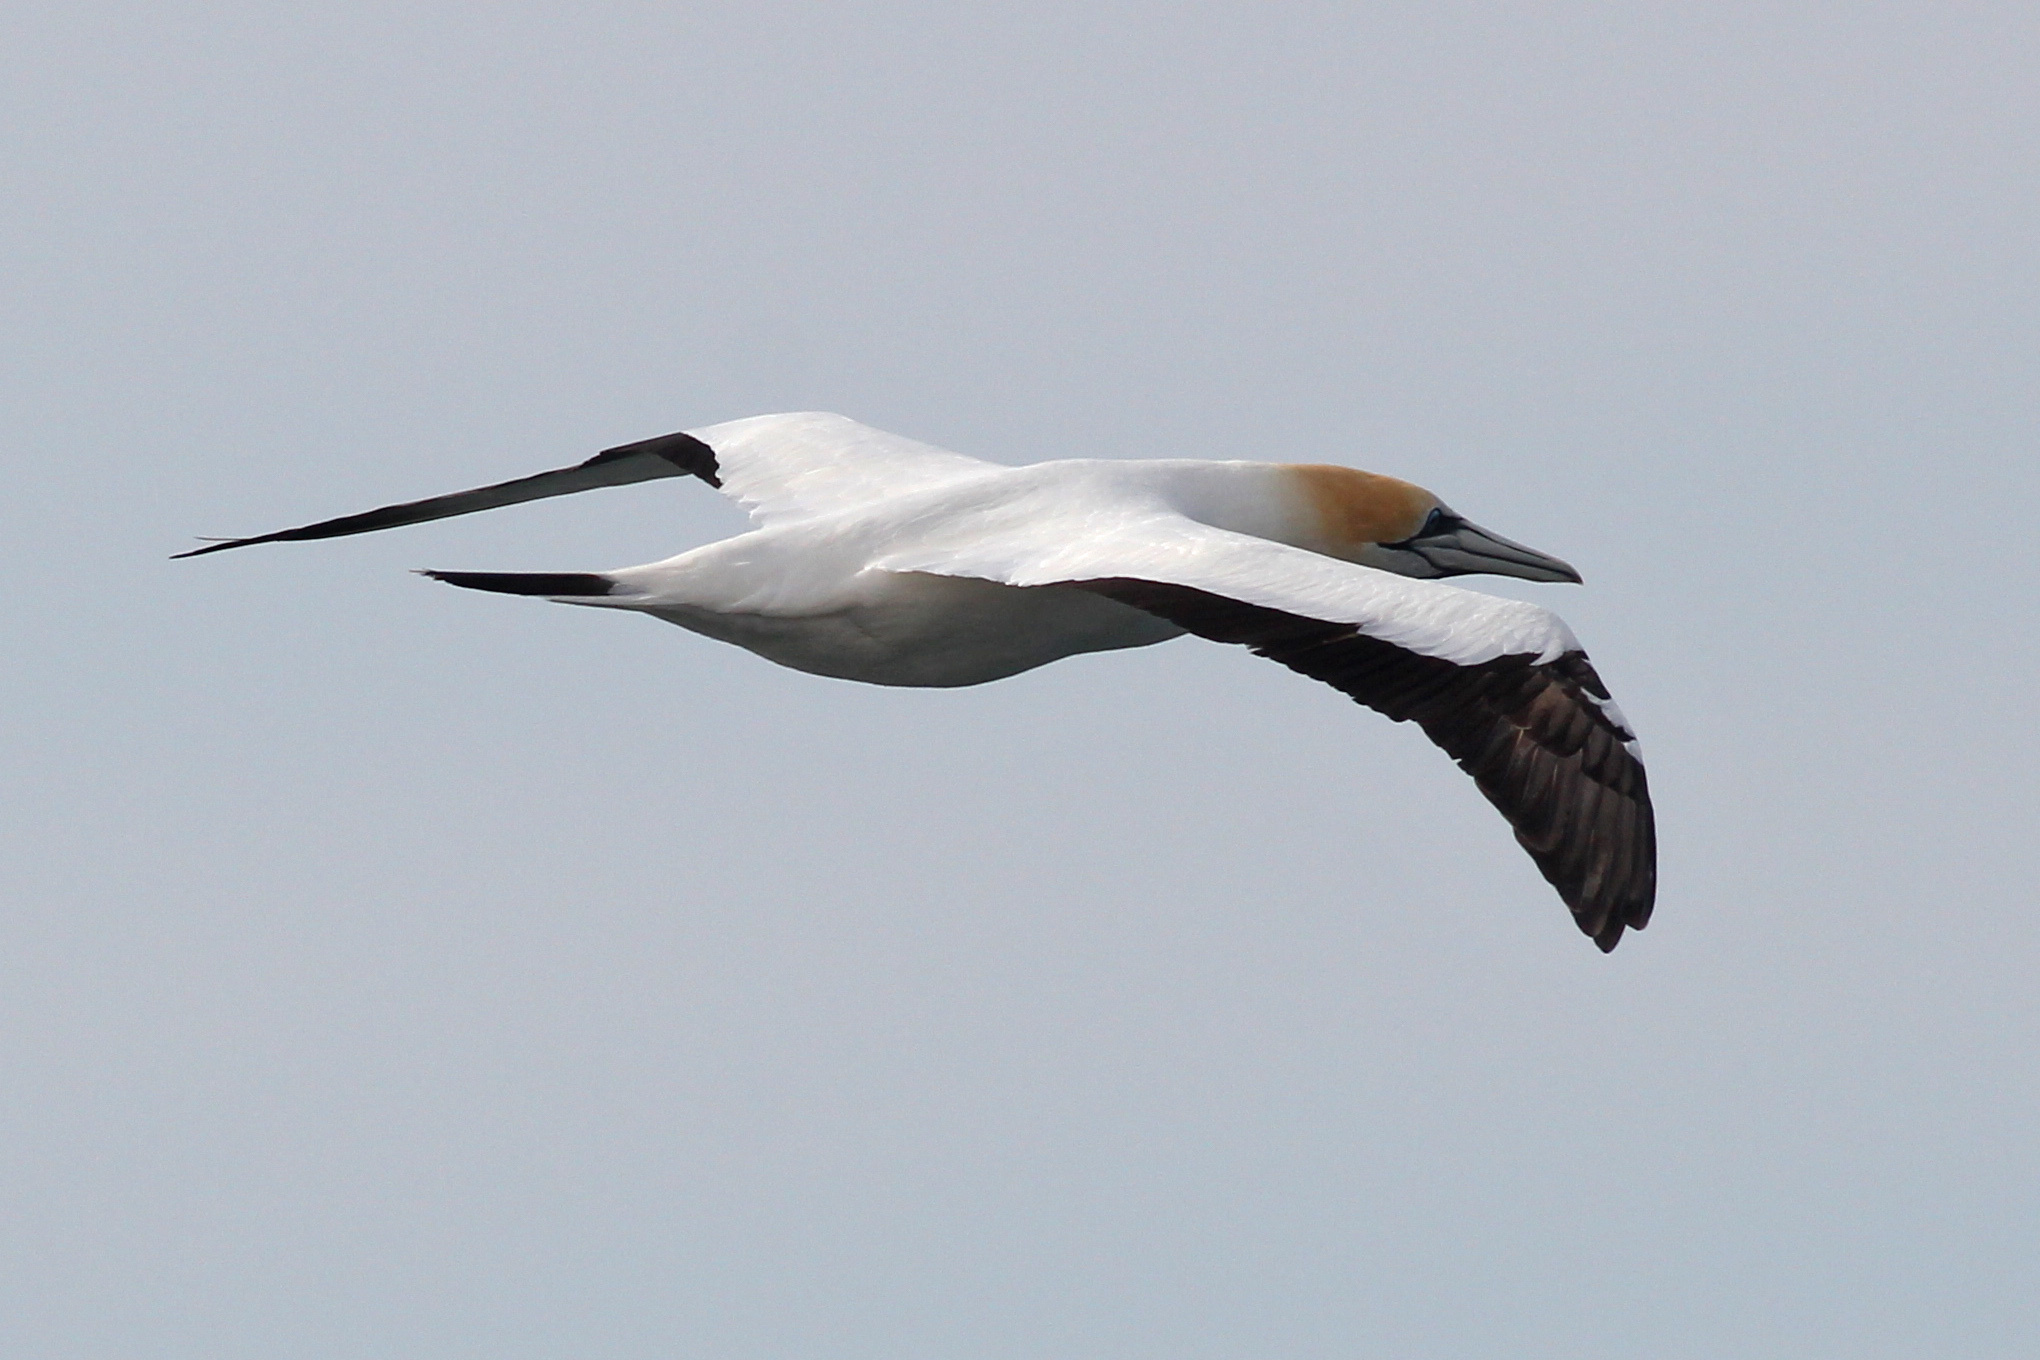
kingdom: Animalia
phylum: Chordata
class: Aves
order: Suliformes
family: Sulidae
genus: Morus
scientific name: Morus serrator
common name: Australasian gannet
